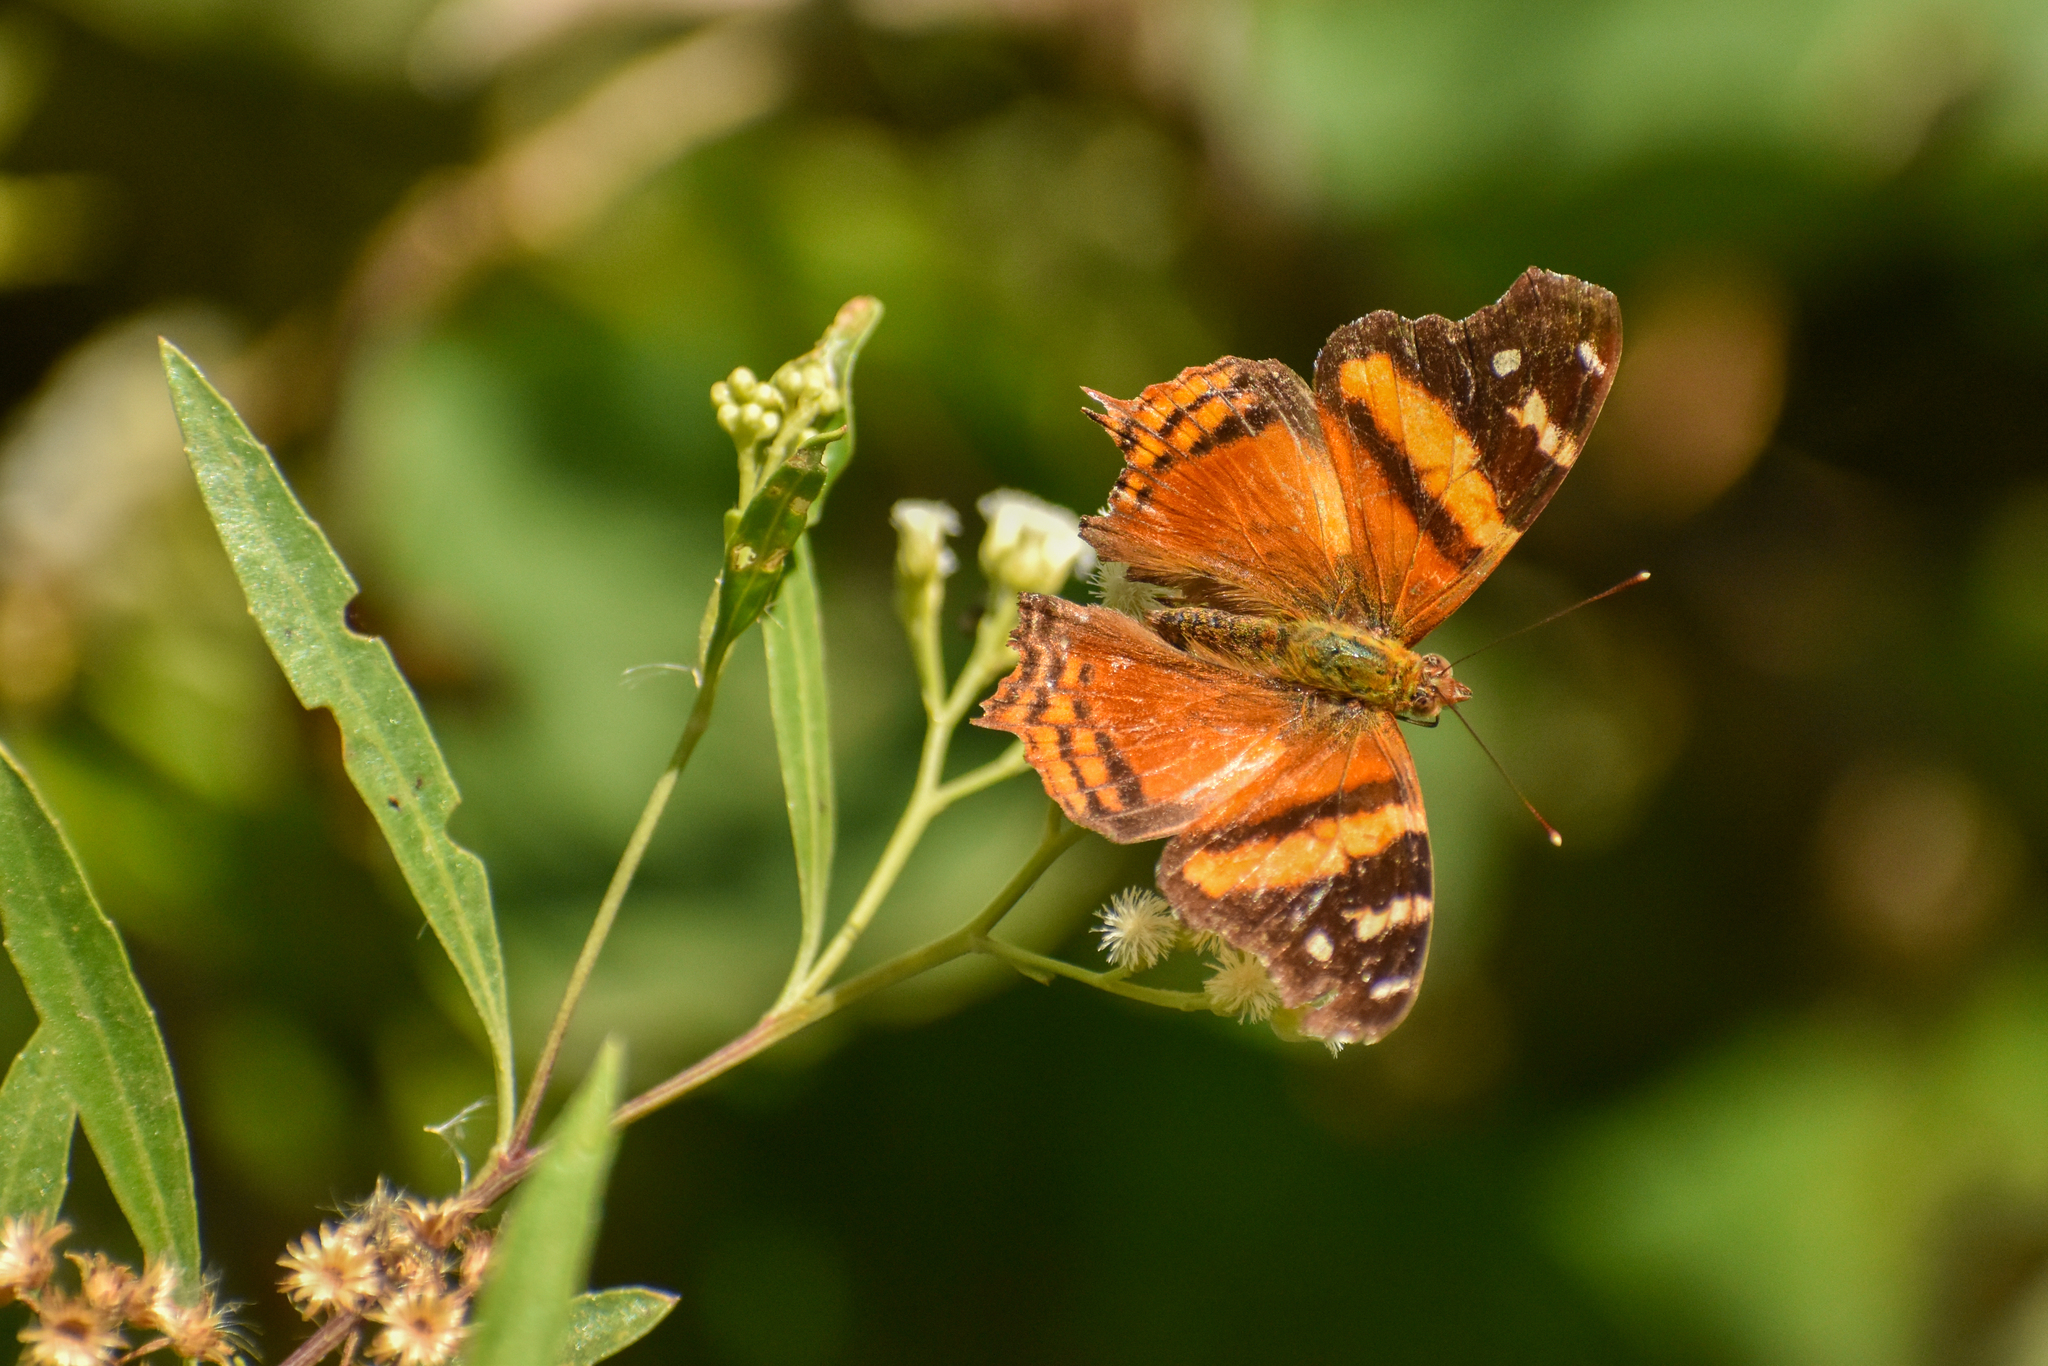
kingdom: Animalia
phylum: Arthropoda
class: Insecta
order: Lepidoptera
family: Nymphalidae
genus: Hypanartia
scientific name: Hypanartia bella
